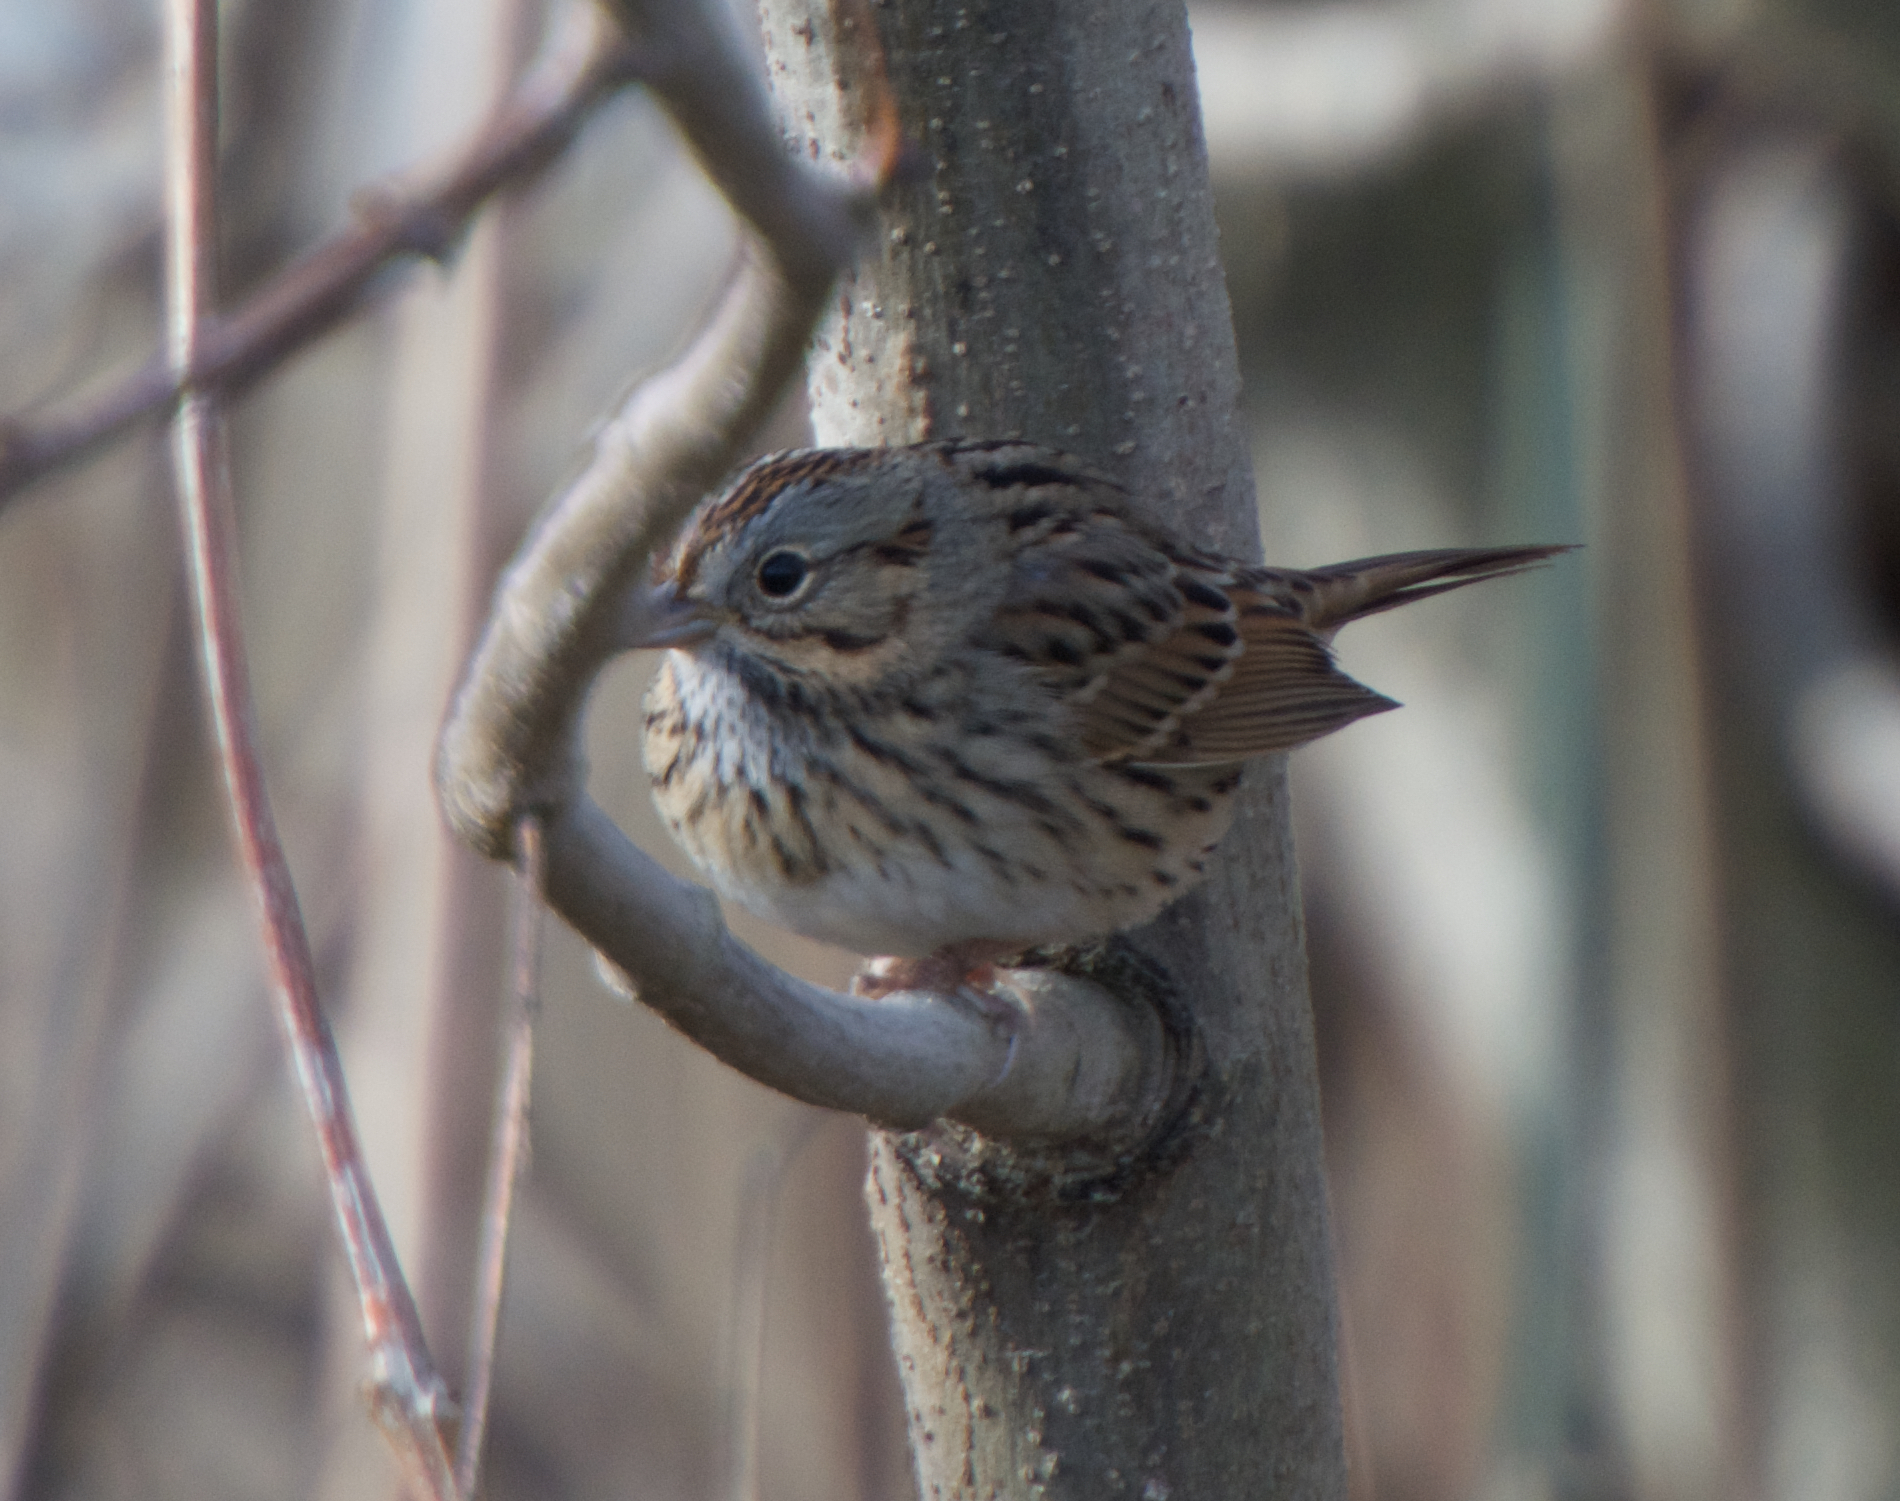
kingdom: Animalia
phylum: Chordata
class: Aves
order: Passeriformes
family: Passerellidae
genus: Melospiza
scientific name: Melospiza lincolnii
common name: Lincoln's sparrow
